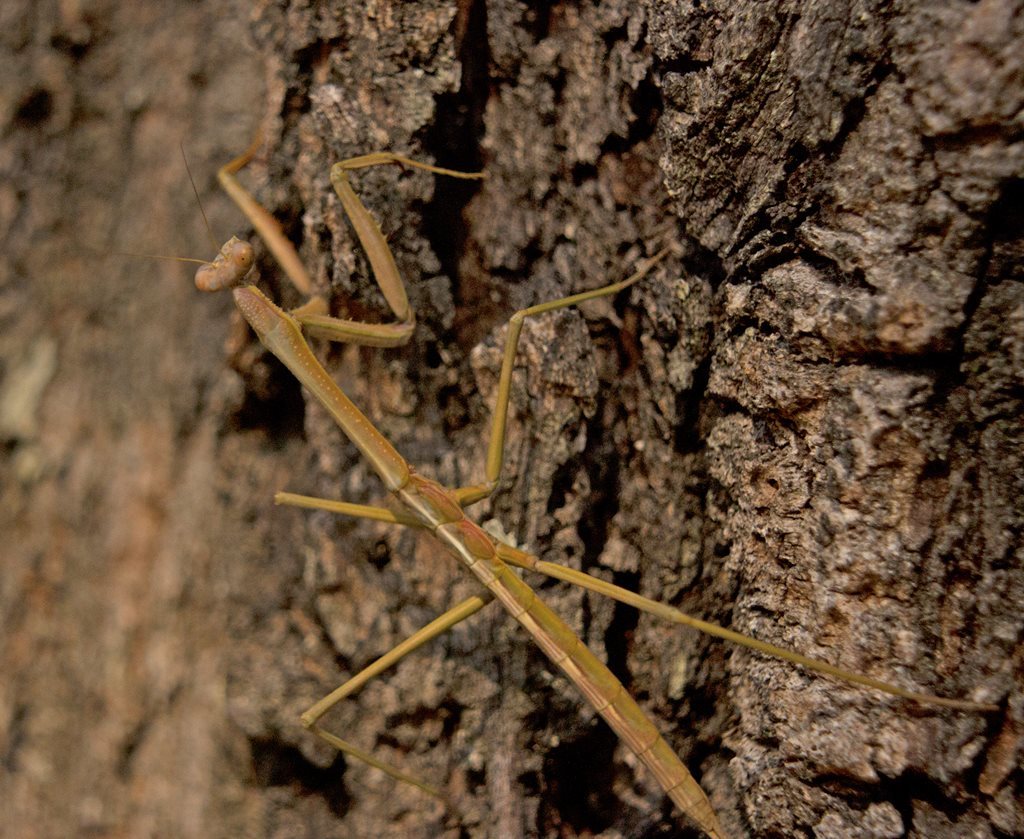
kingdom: Animalia
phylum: Arthropoda
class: Insecta
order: Mantodea
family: Mantidae
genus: Archimantis
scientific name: Archimantis latistyla
